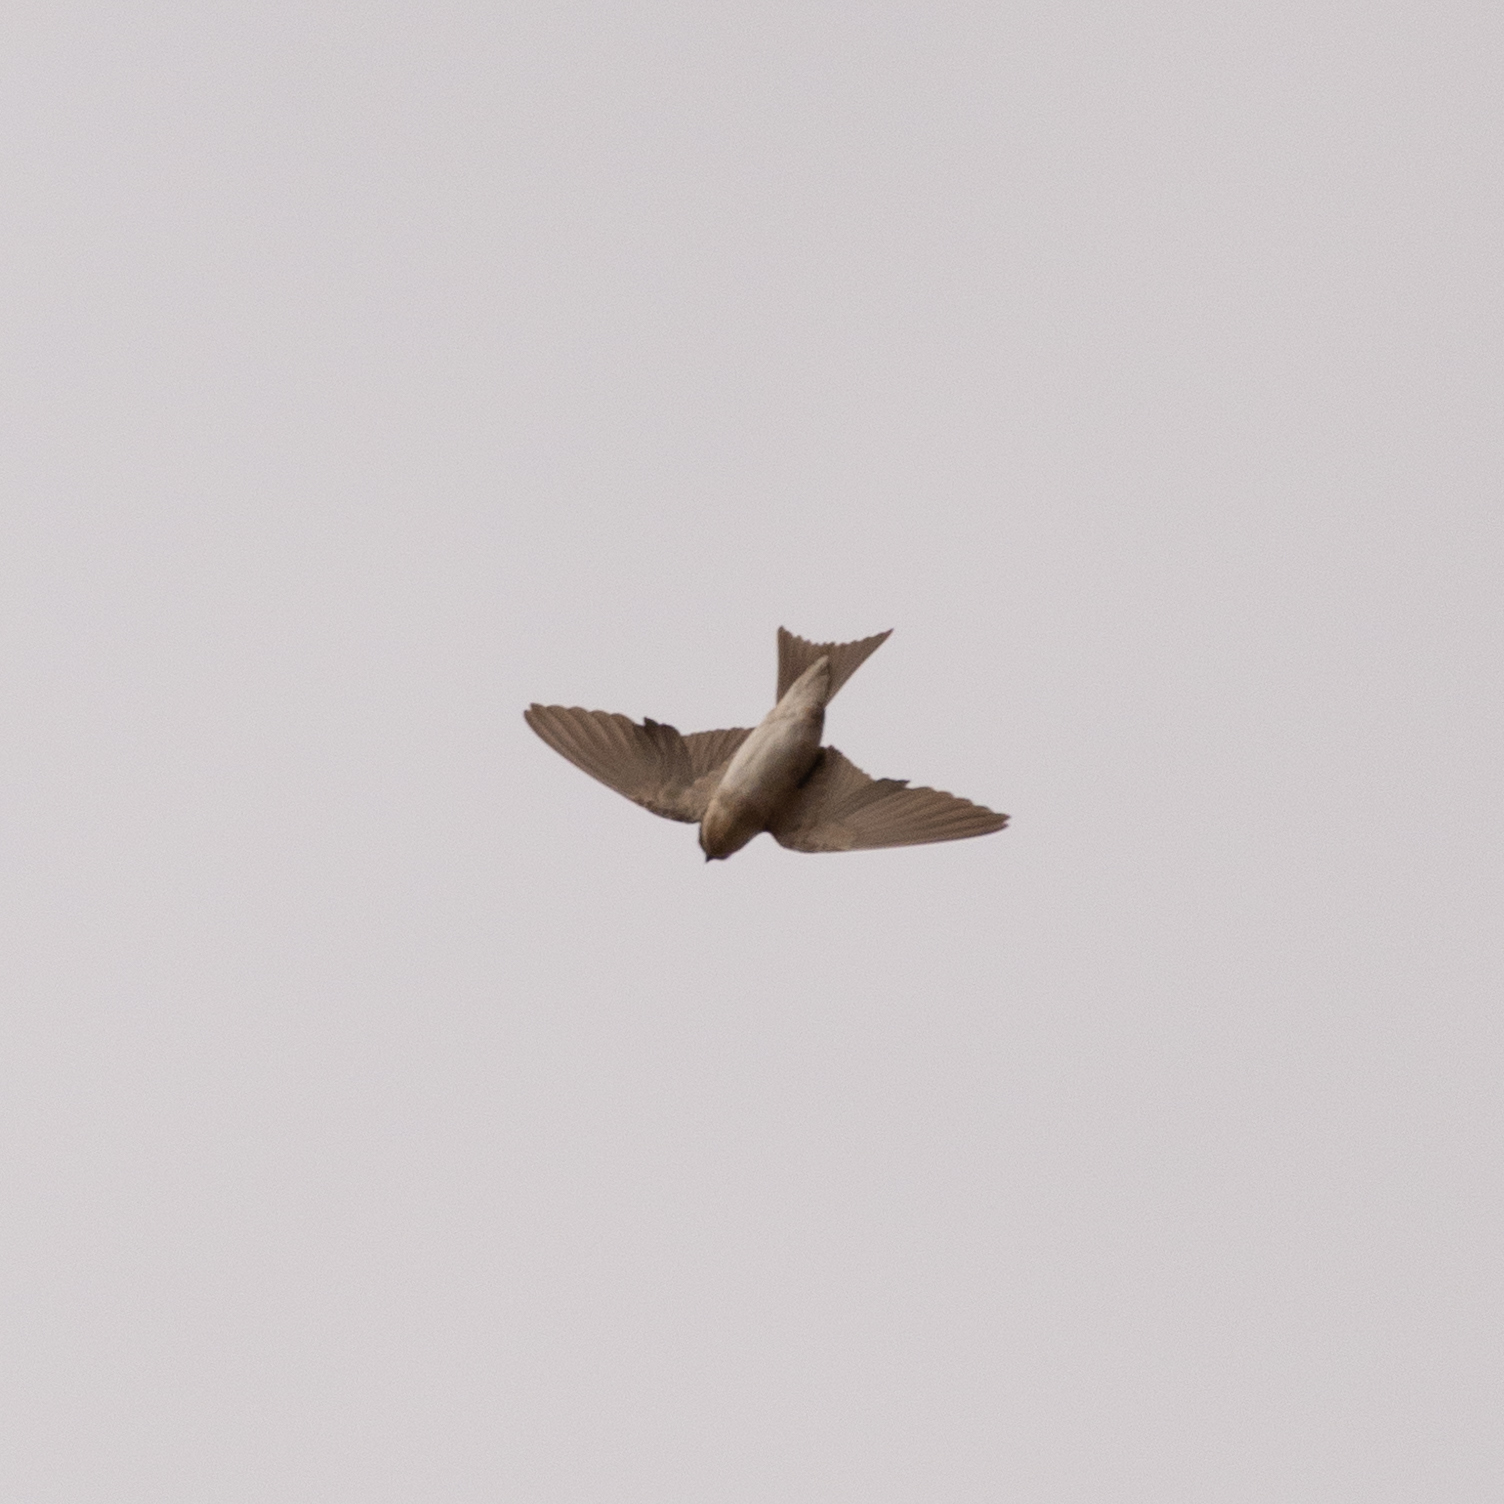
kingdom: Animalia
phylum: Chordata
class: Aves
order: Passeriformes
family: Hirundinidae
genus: Delichon
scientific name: Delichon urbicum
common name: Common house martin
